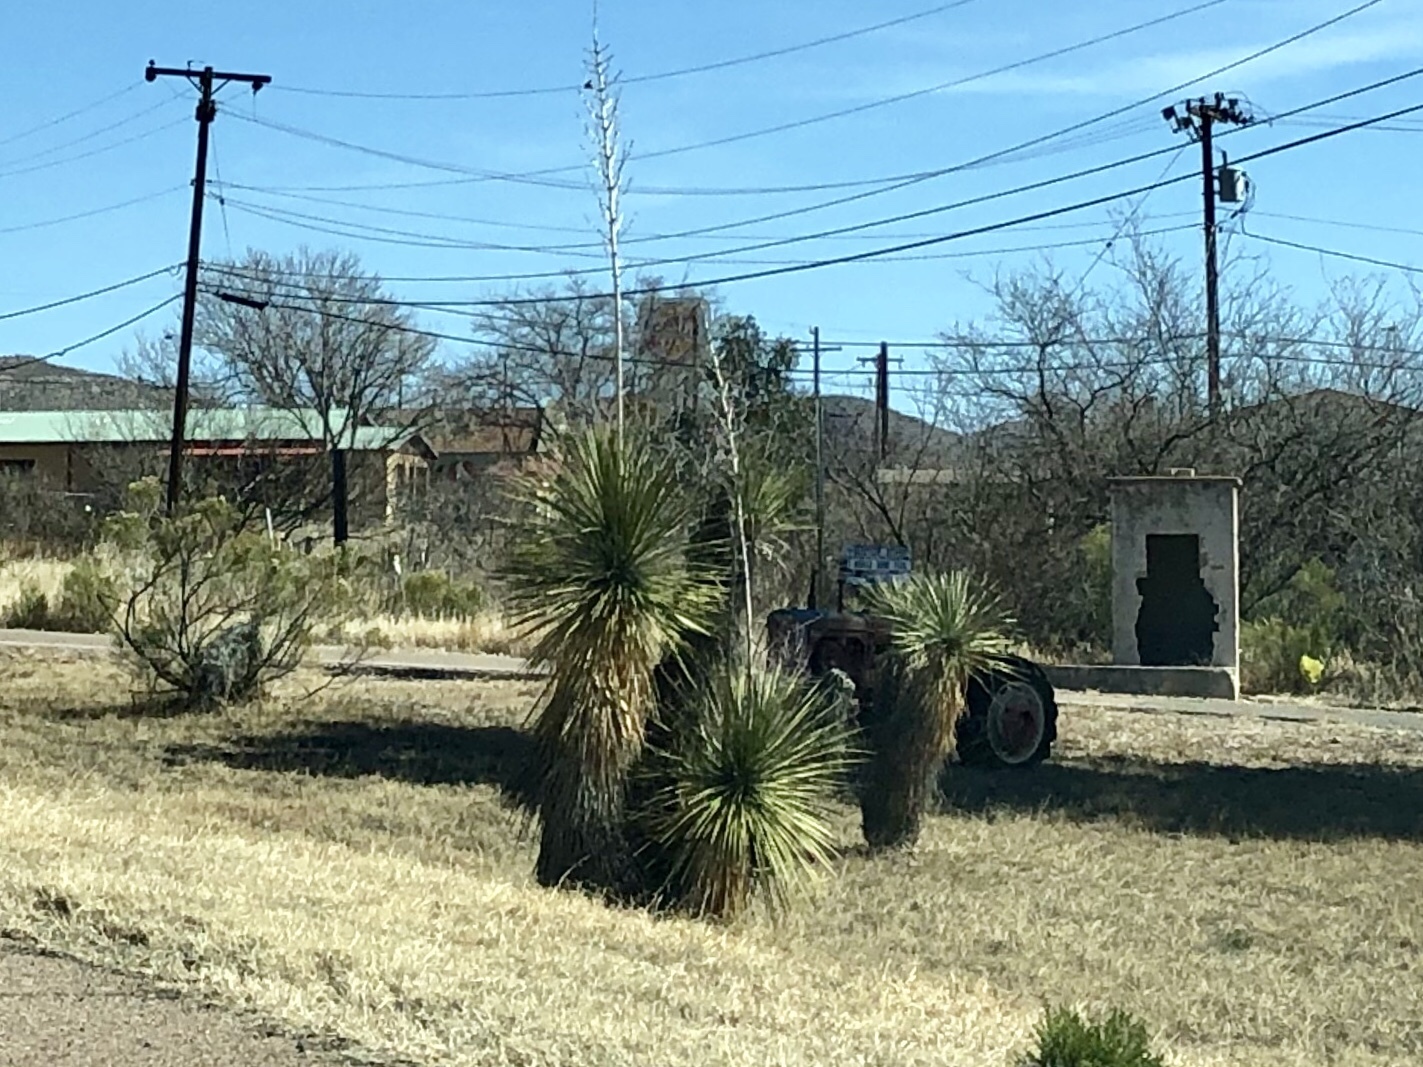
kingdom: Plantae
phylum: Tracheophyta
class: Liliopsida
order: Asparagales
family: Asparagaceae
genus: Yucca
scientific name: Yucca elata
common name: Palmella
